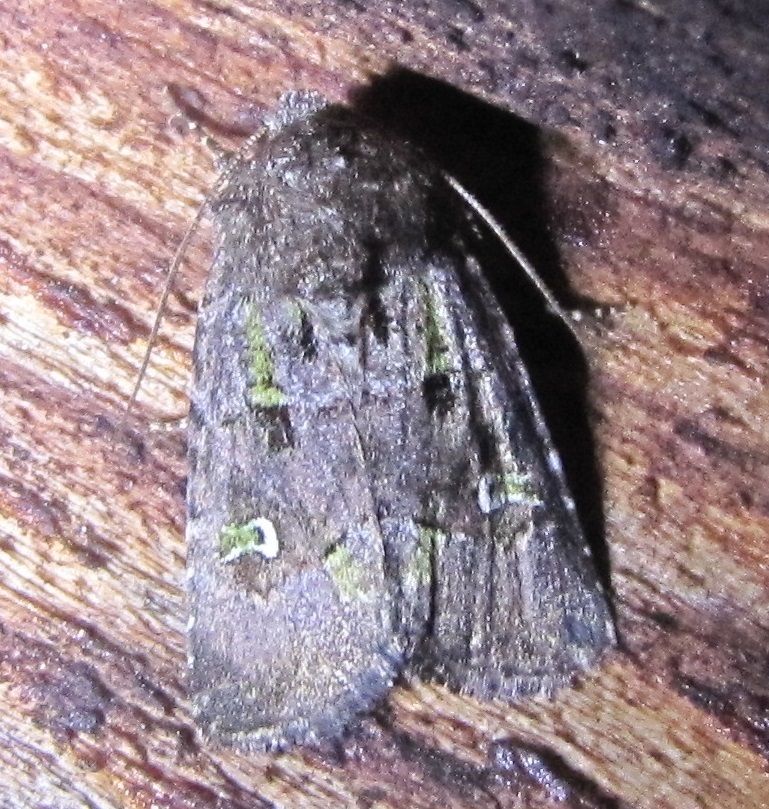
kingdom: Animalia
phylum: Arthropoda
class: Insecta
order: Lepidoptera
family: Noctuidae
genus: Lacinipolia
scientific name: Lacinipolia renigera
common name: Kidney-spotted minor
